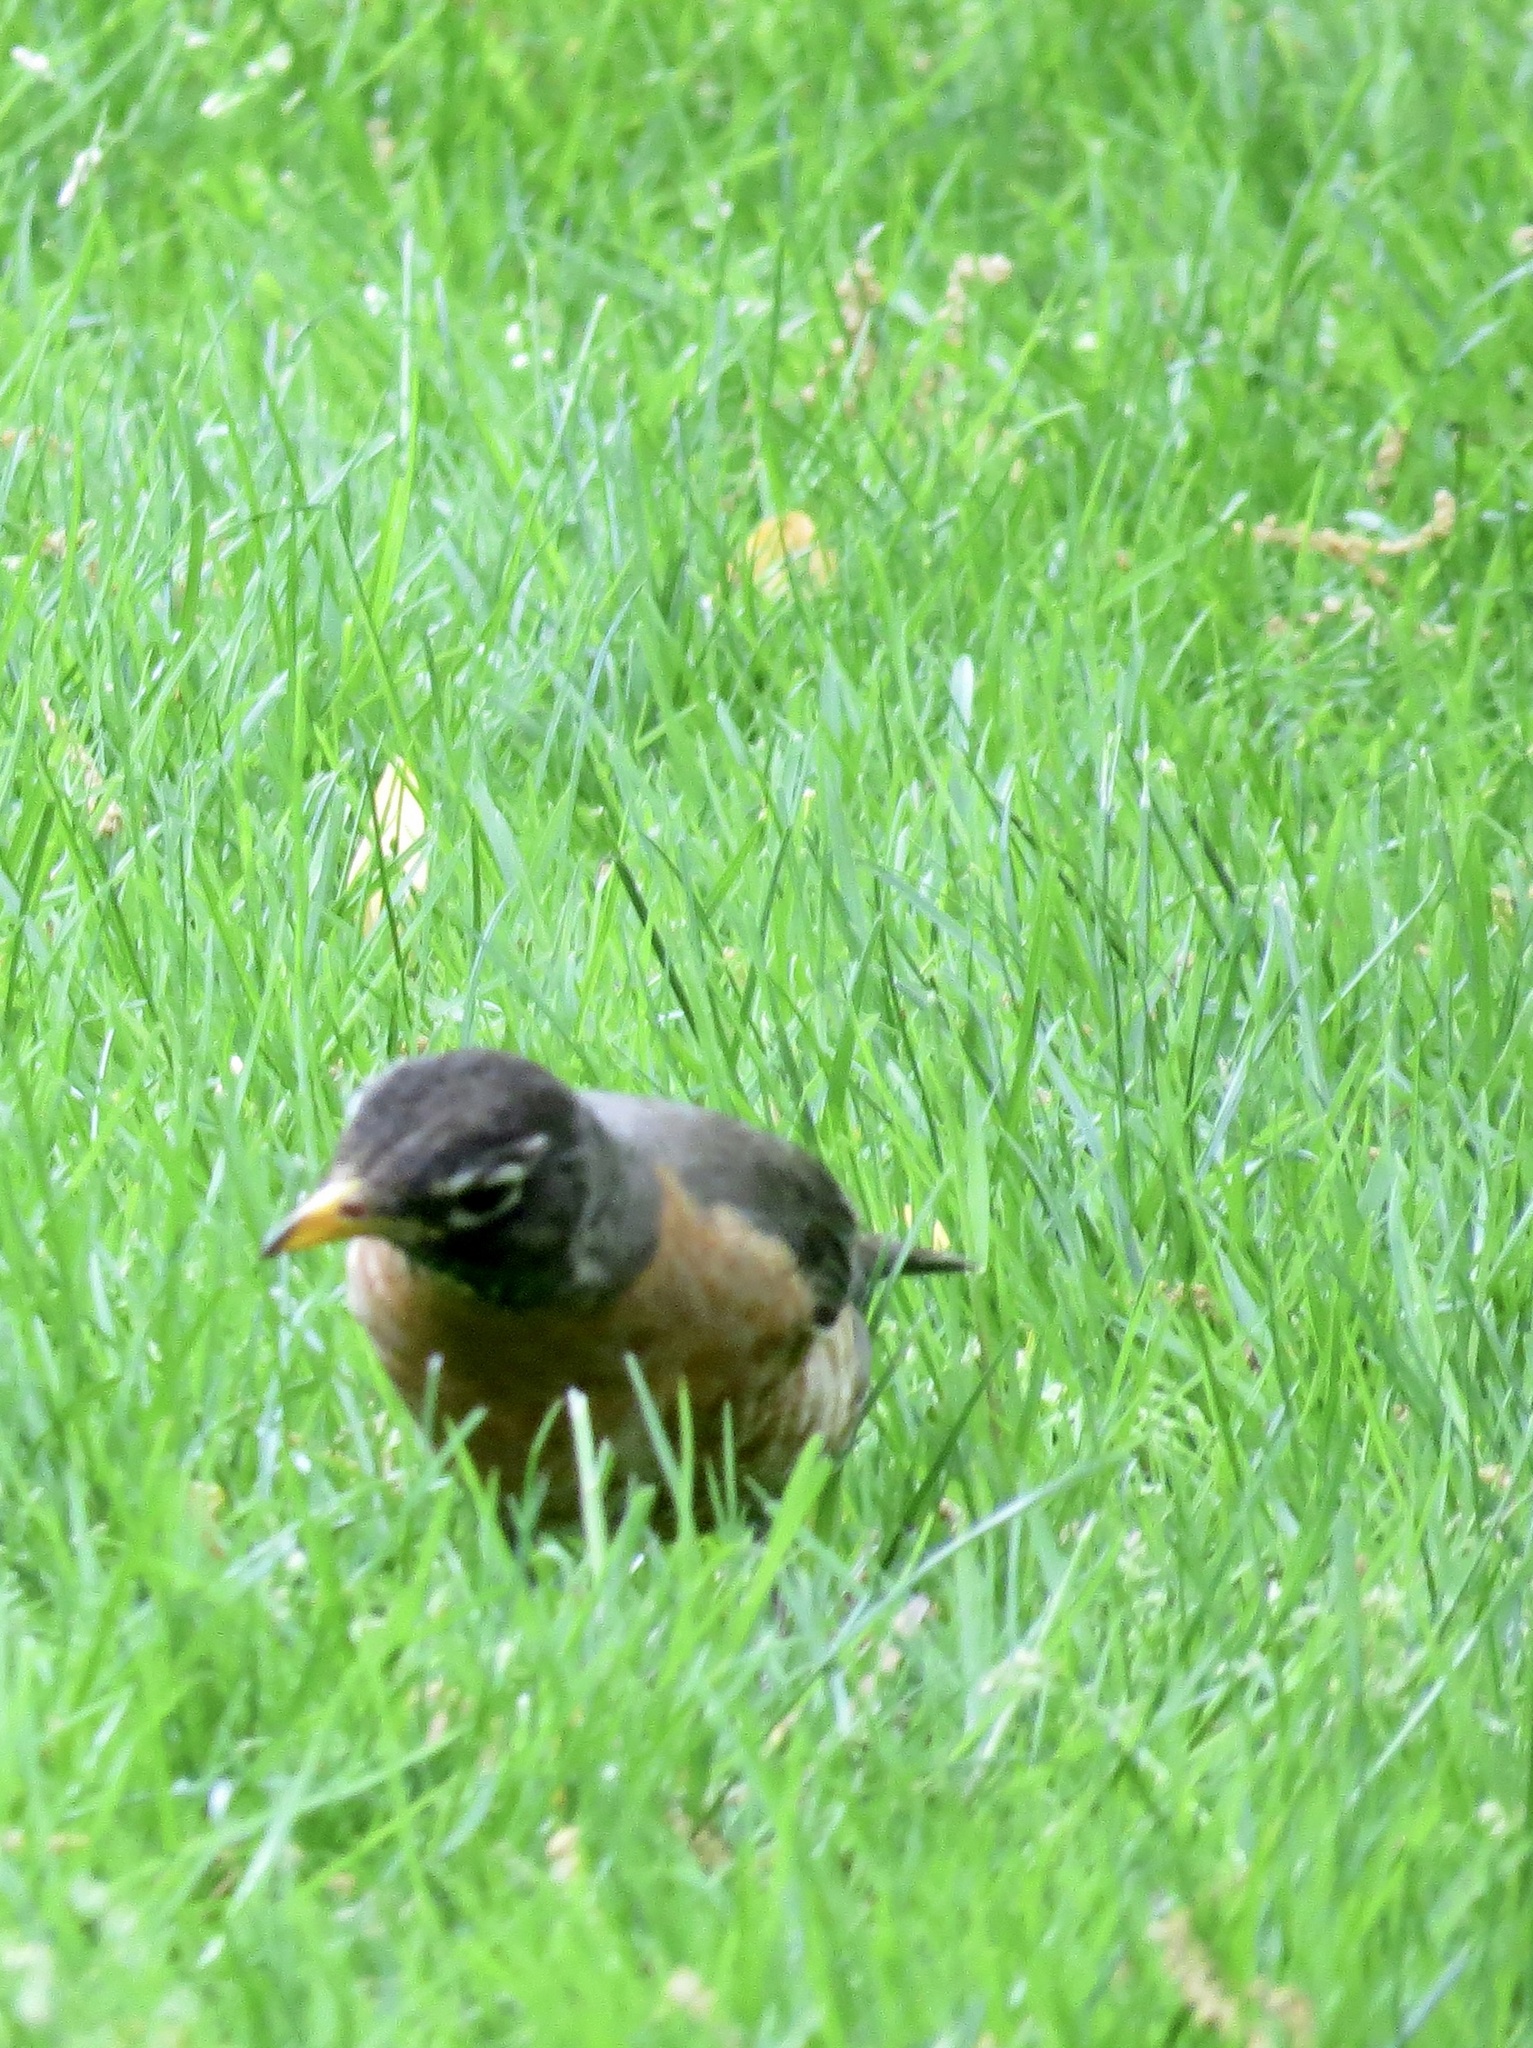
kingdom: Animalia
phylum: Chordata
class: Aves
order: Passeriformes
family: Turdidae
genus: Turdus
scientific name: Turdus migratorius
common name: American robin
